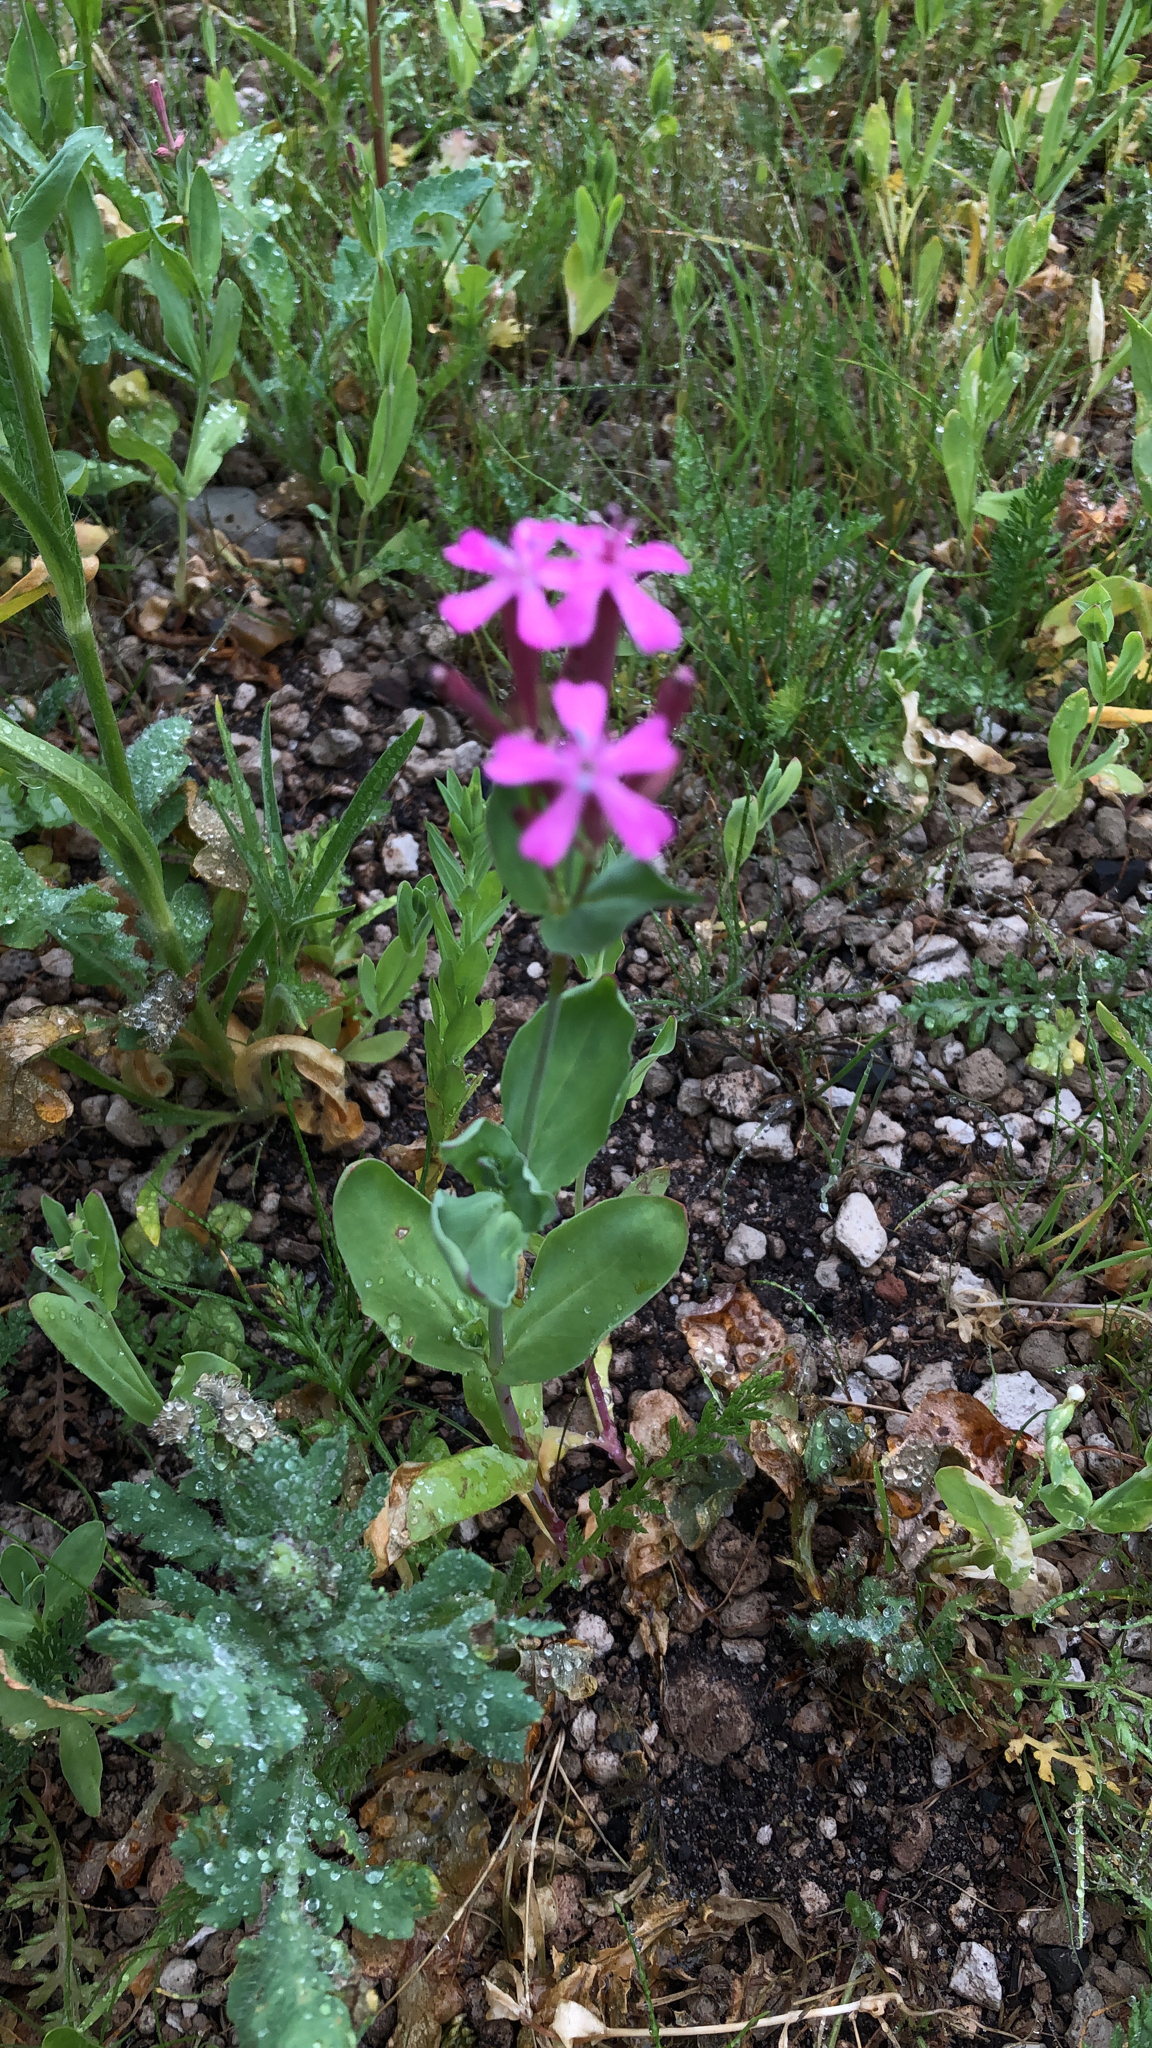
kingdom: Plantae
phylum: Tracheophyta
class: Magnoliopsida
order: Caryophyllales
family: Caryophyllaceae
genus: Atocion
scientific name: Atocion armeria
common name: Sweet william catchfly
